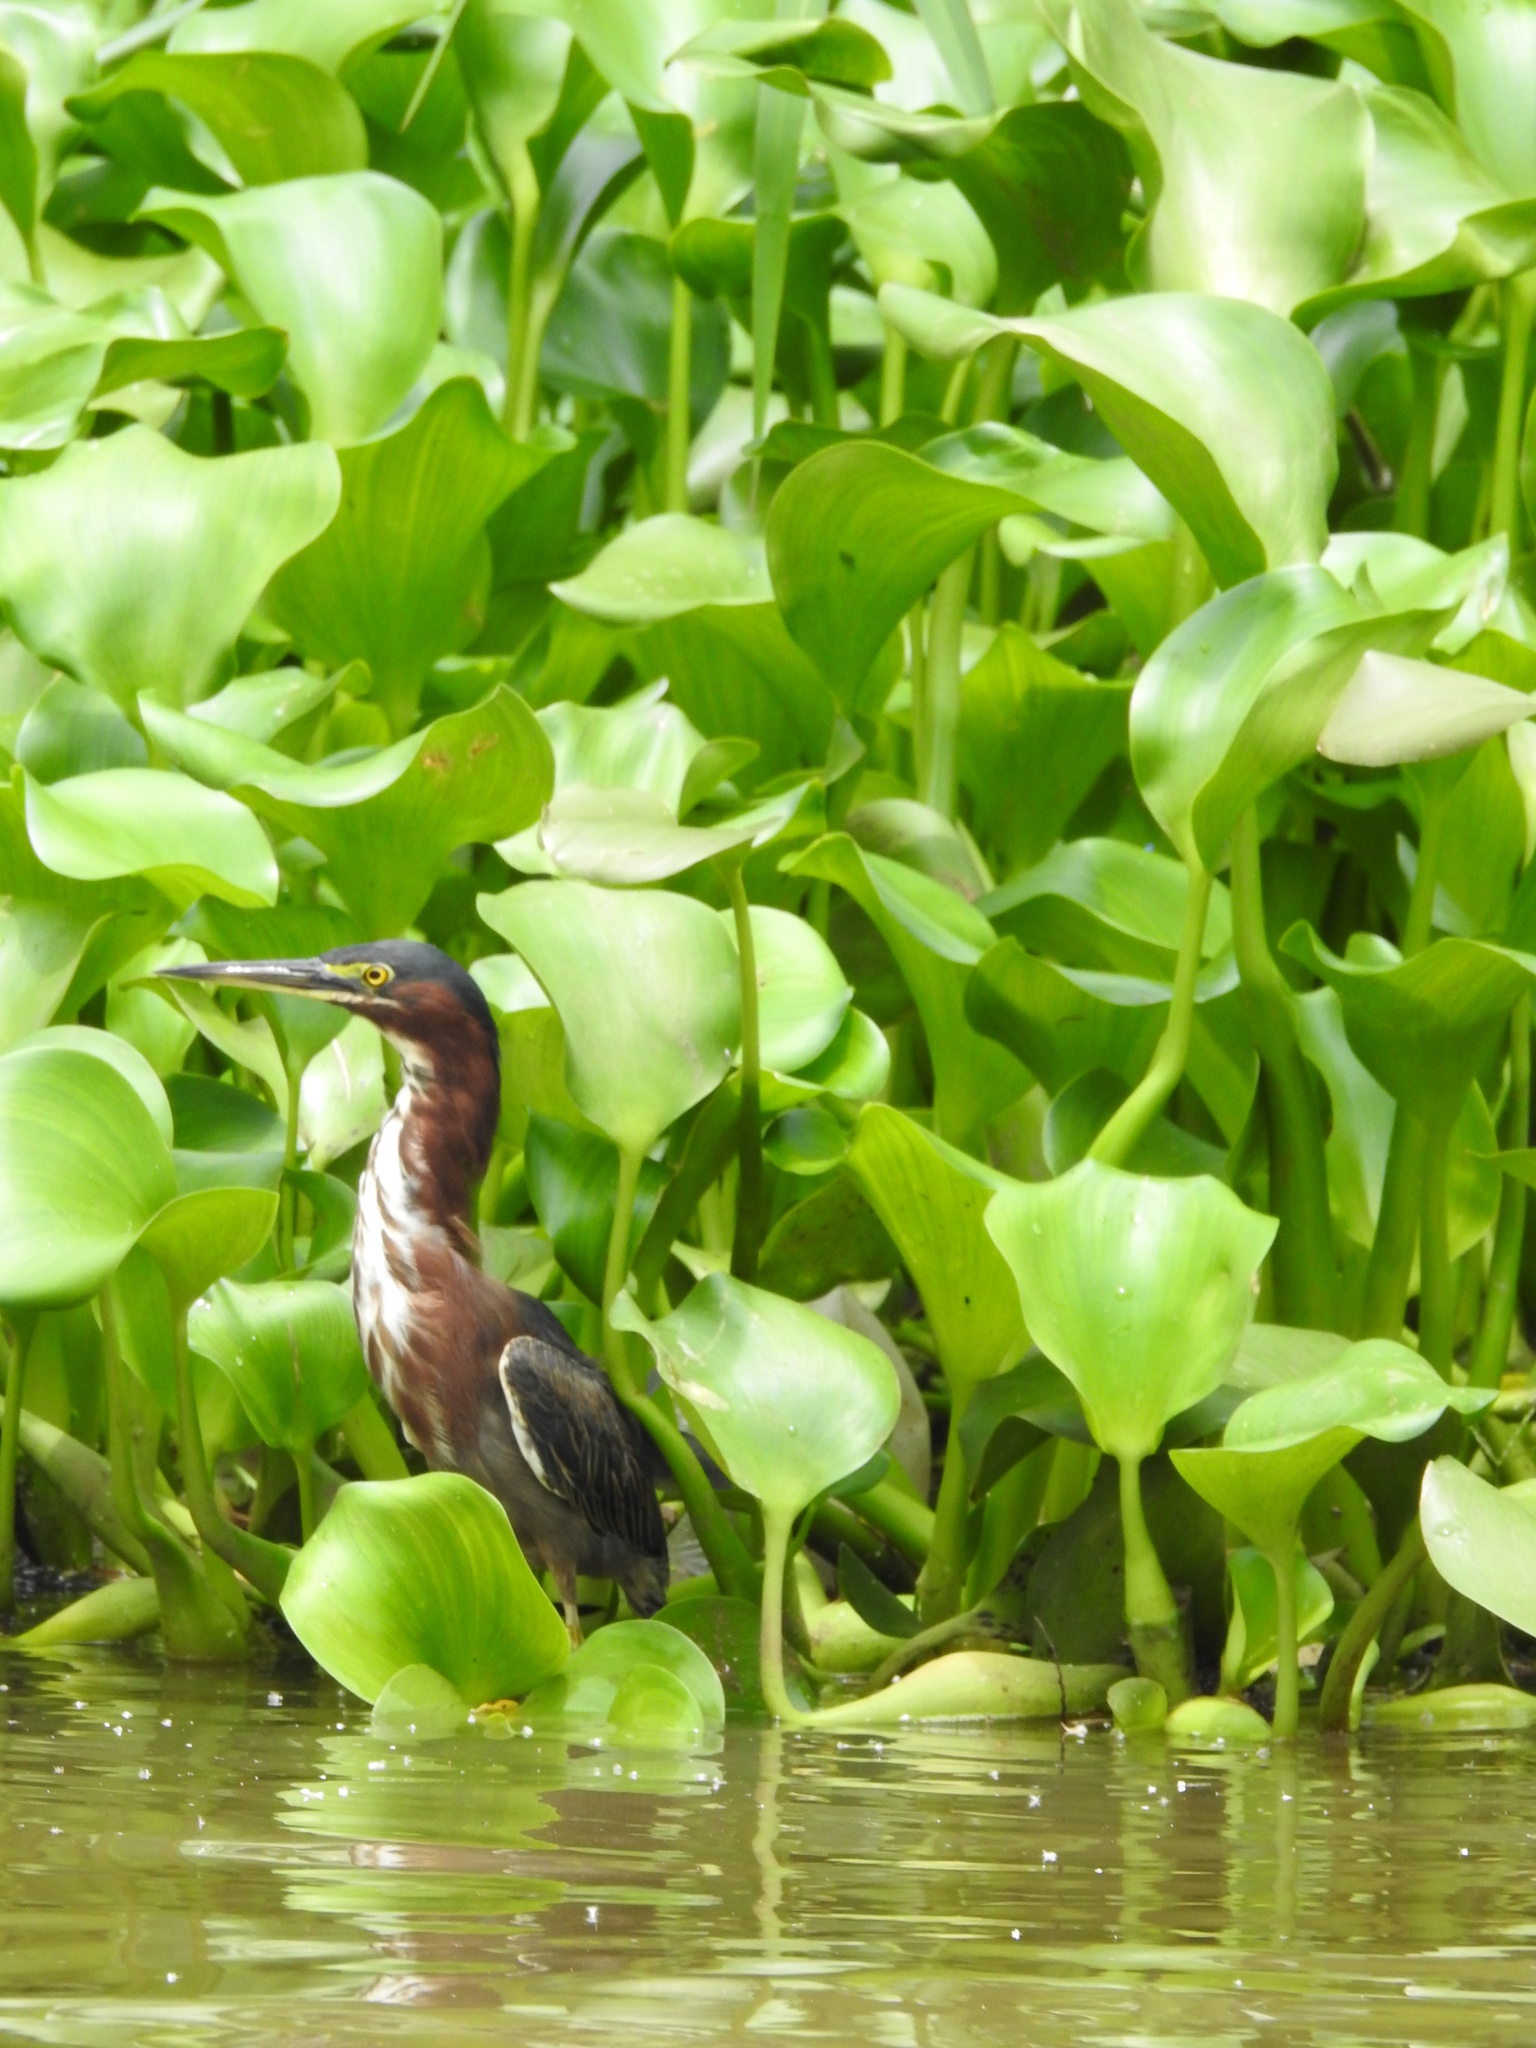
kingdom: Animalia
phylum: Chordata
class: Aves
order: Pelecaniformes
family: Ardeidae
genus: Butorides
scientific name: Butorides virescens
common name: Green heron
